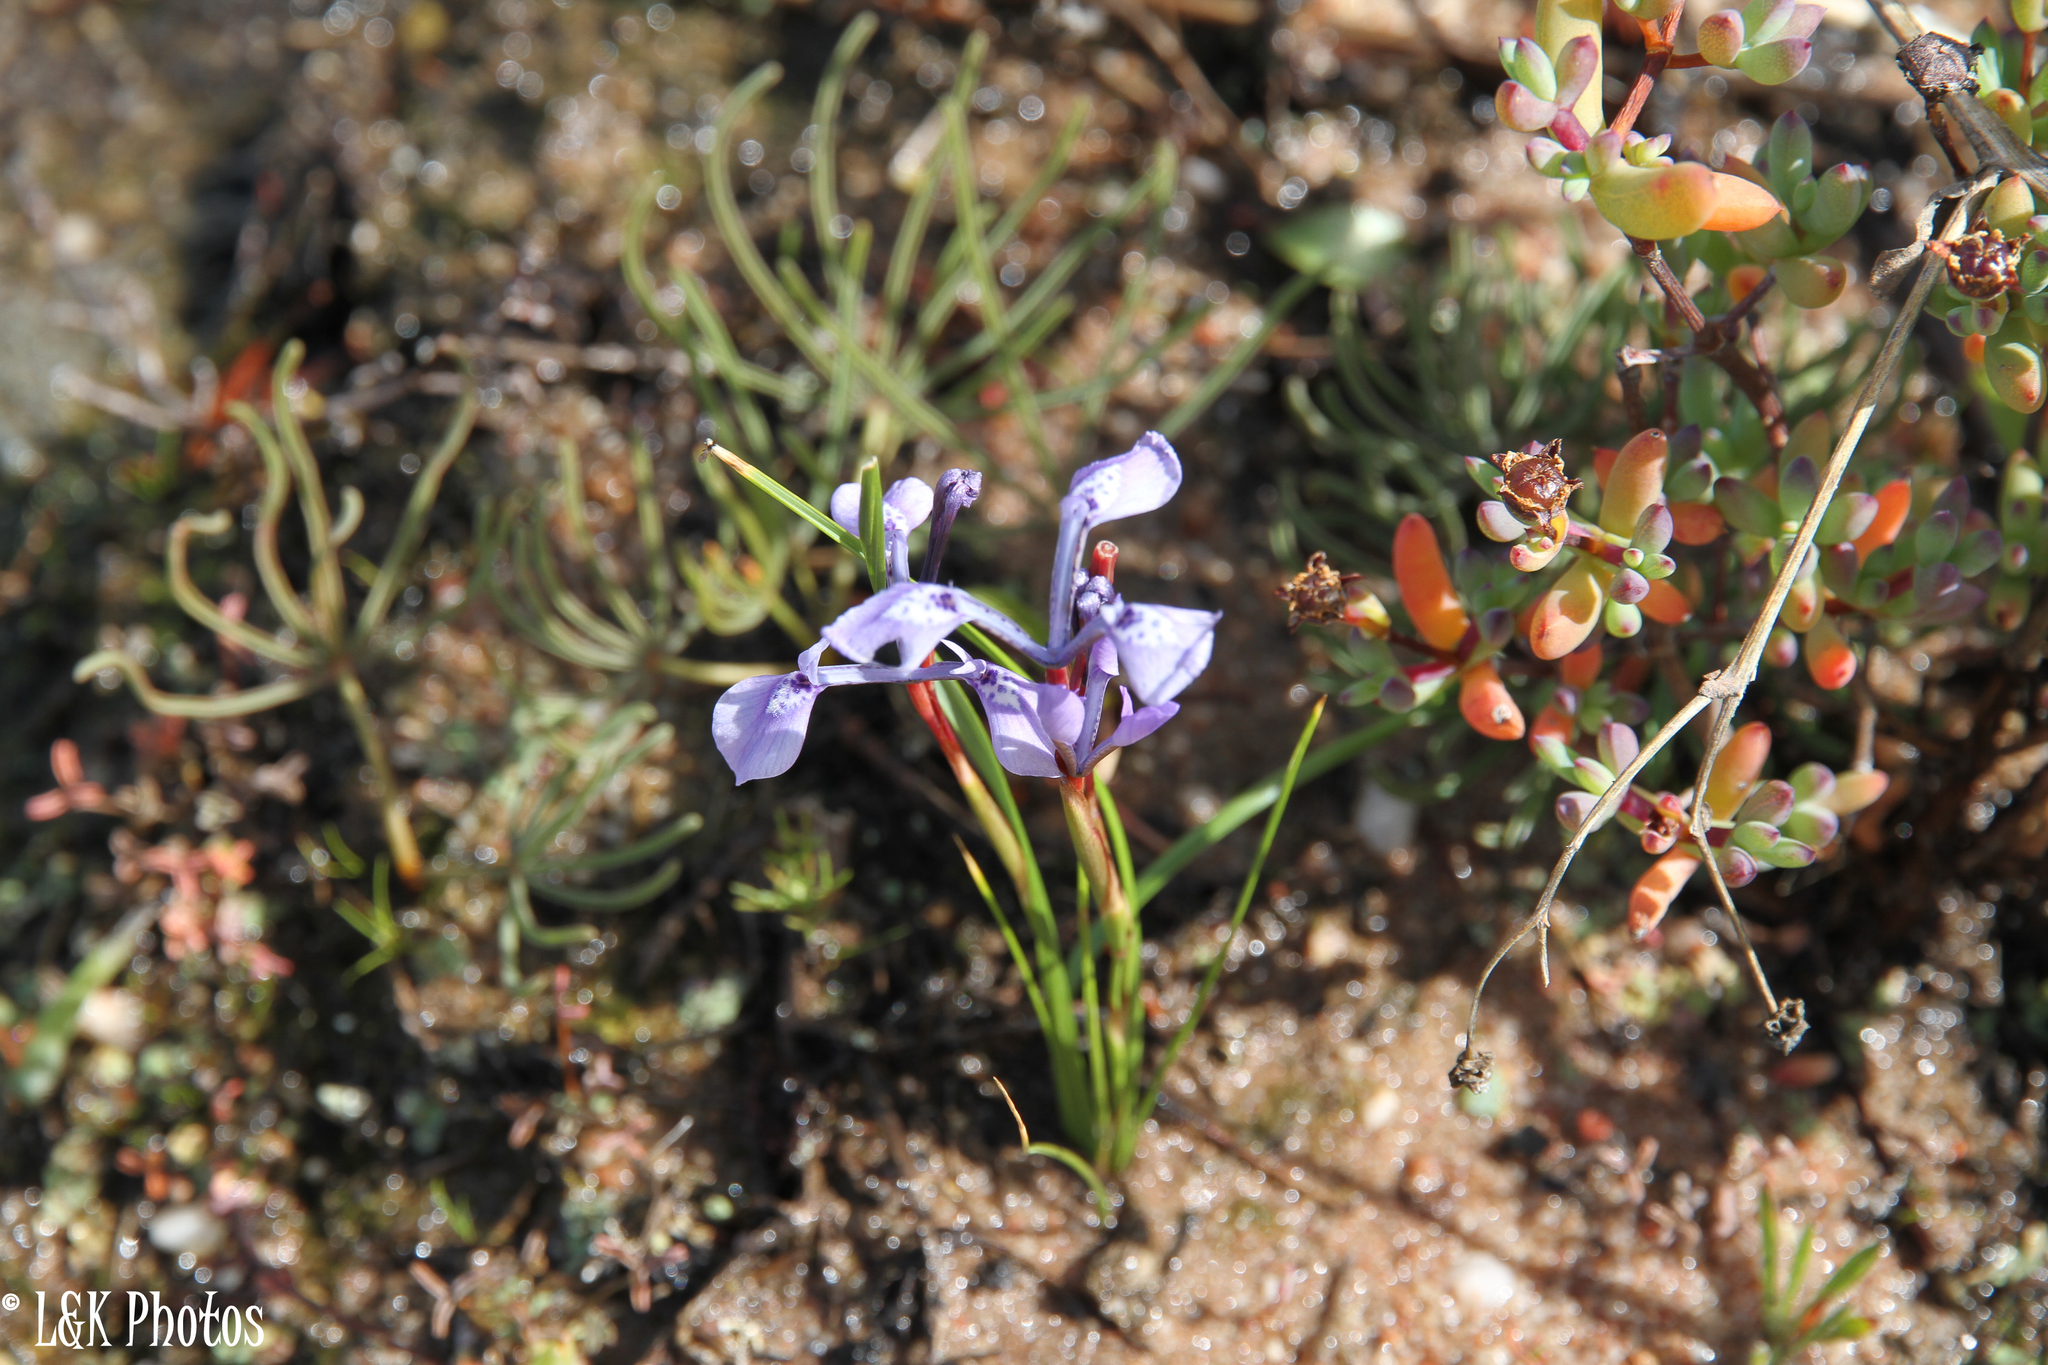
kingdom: Plantae
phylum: Tracheophyta
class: Liliopsida
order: Asparagales
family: Iridaceae
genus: Moraea
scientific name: Moraea tripetala
